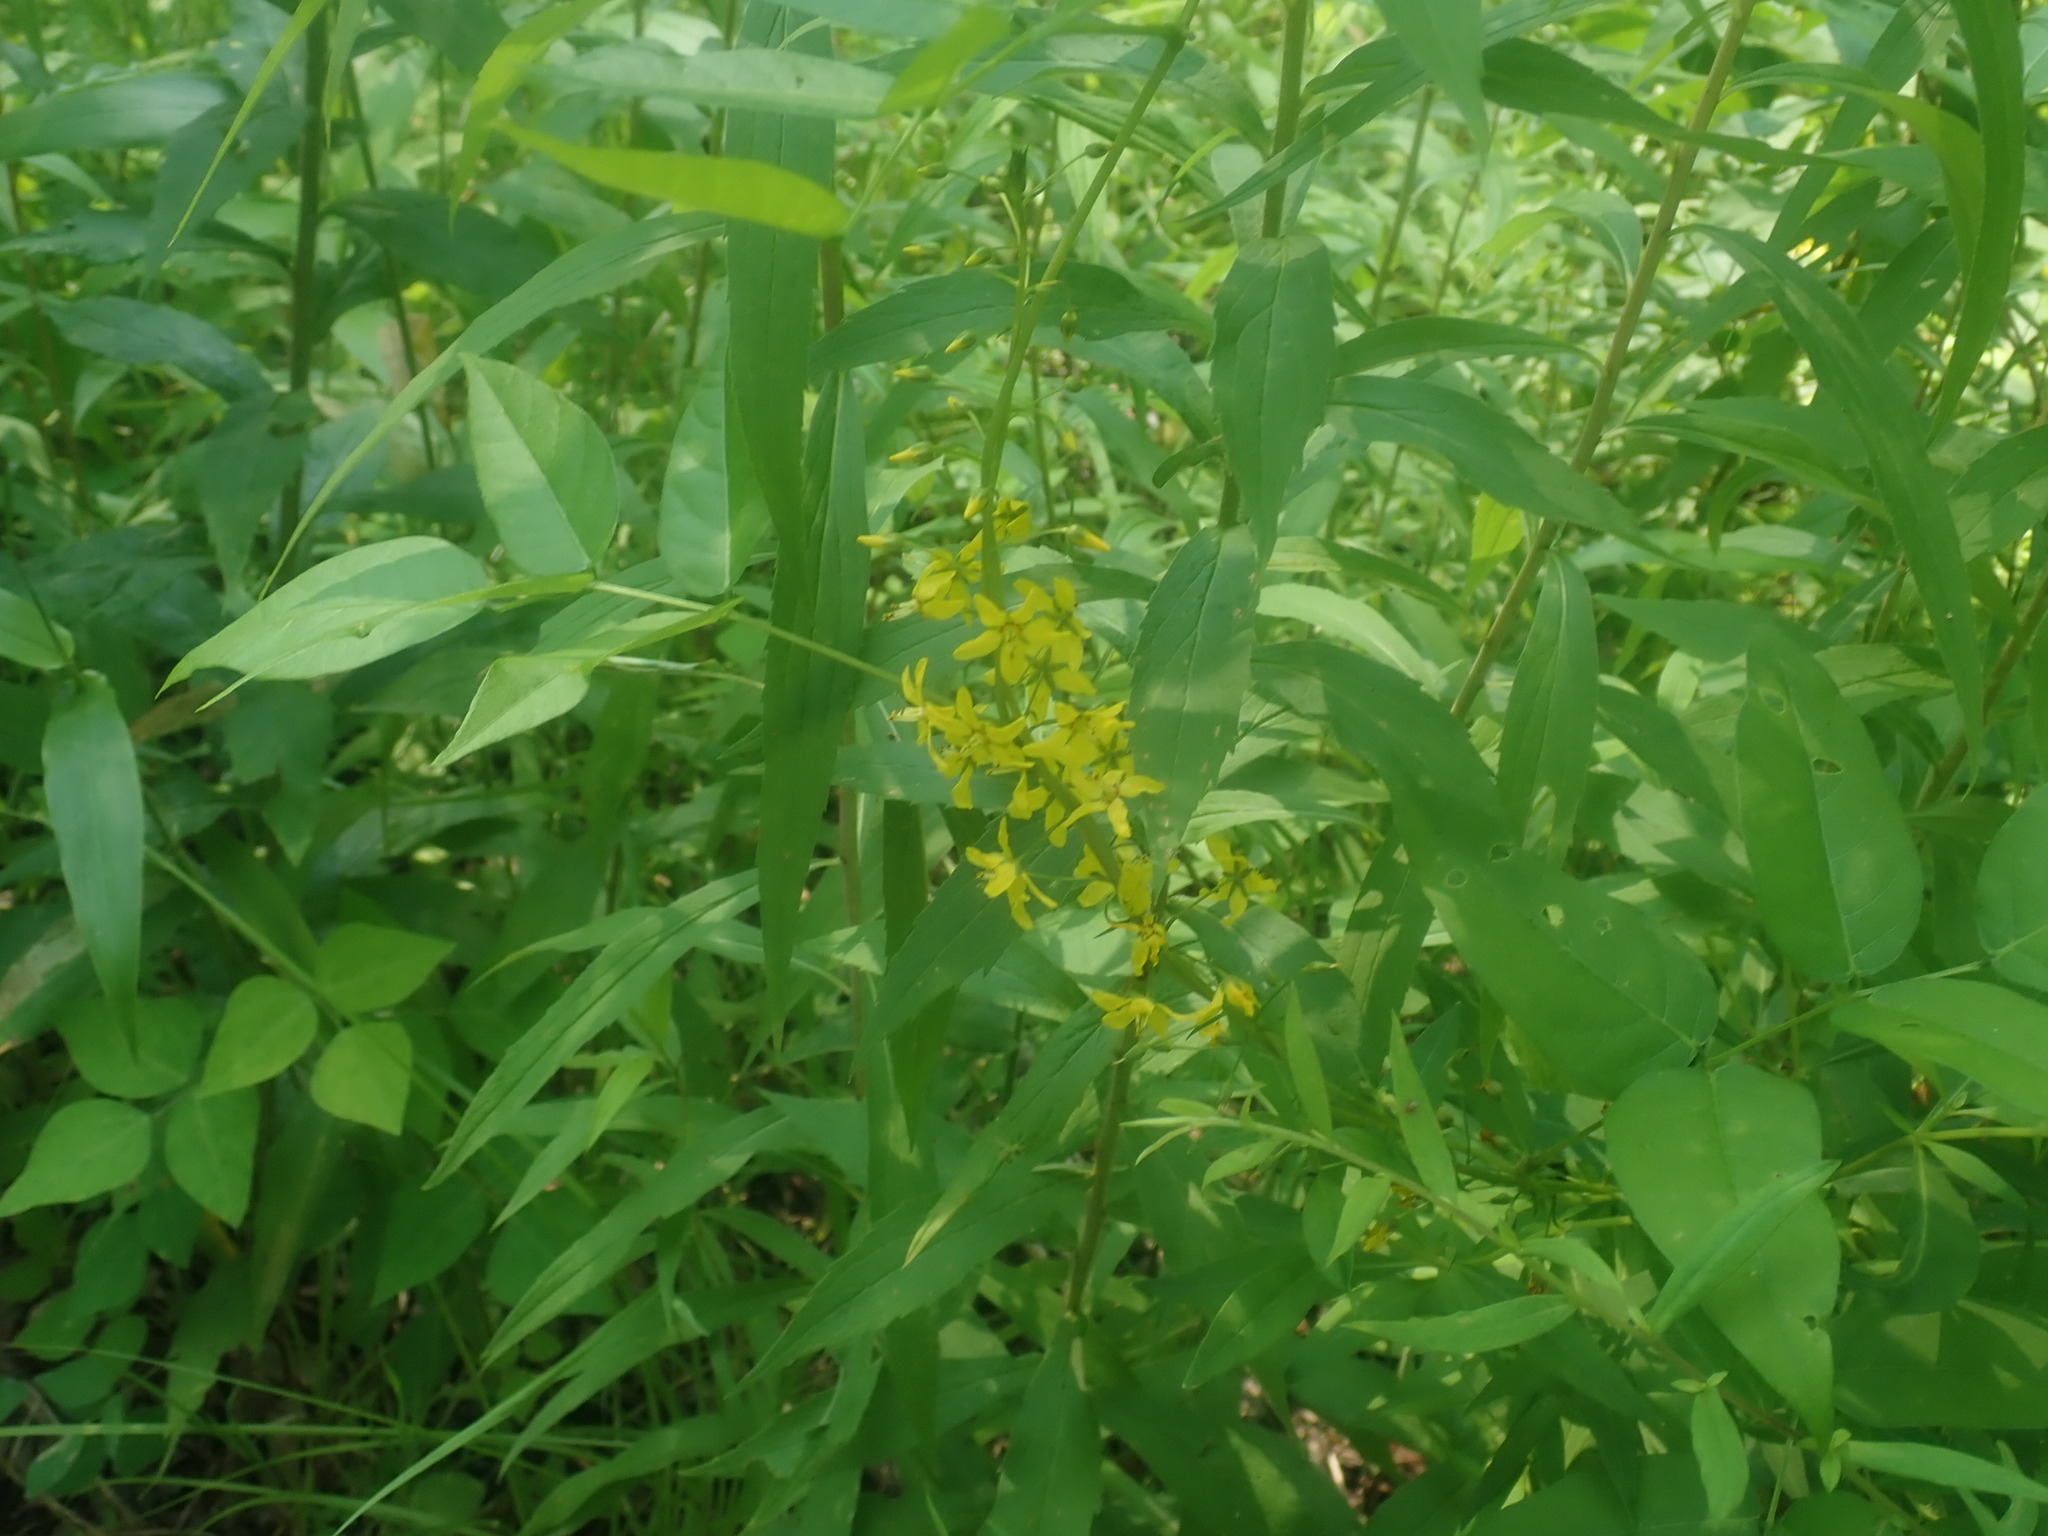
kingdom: Plantae
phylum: Tracheophyta
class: Magnoliopsida
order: Ericales
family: Primulaceae
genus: Lysimachia
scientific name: Lysimachia terrestris
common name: Lake loosestrife
